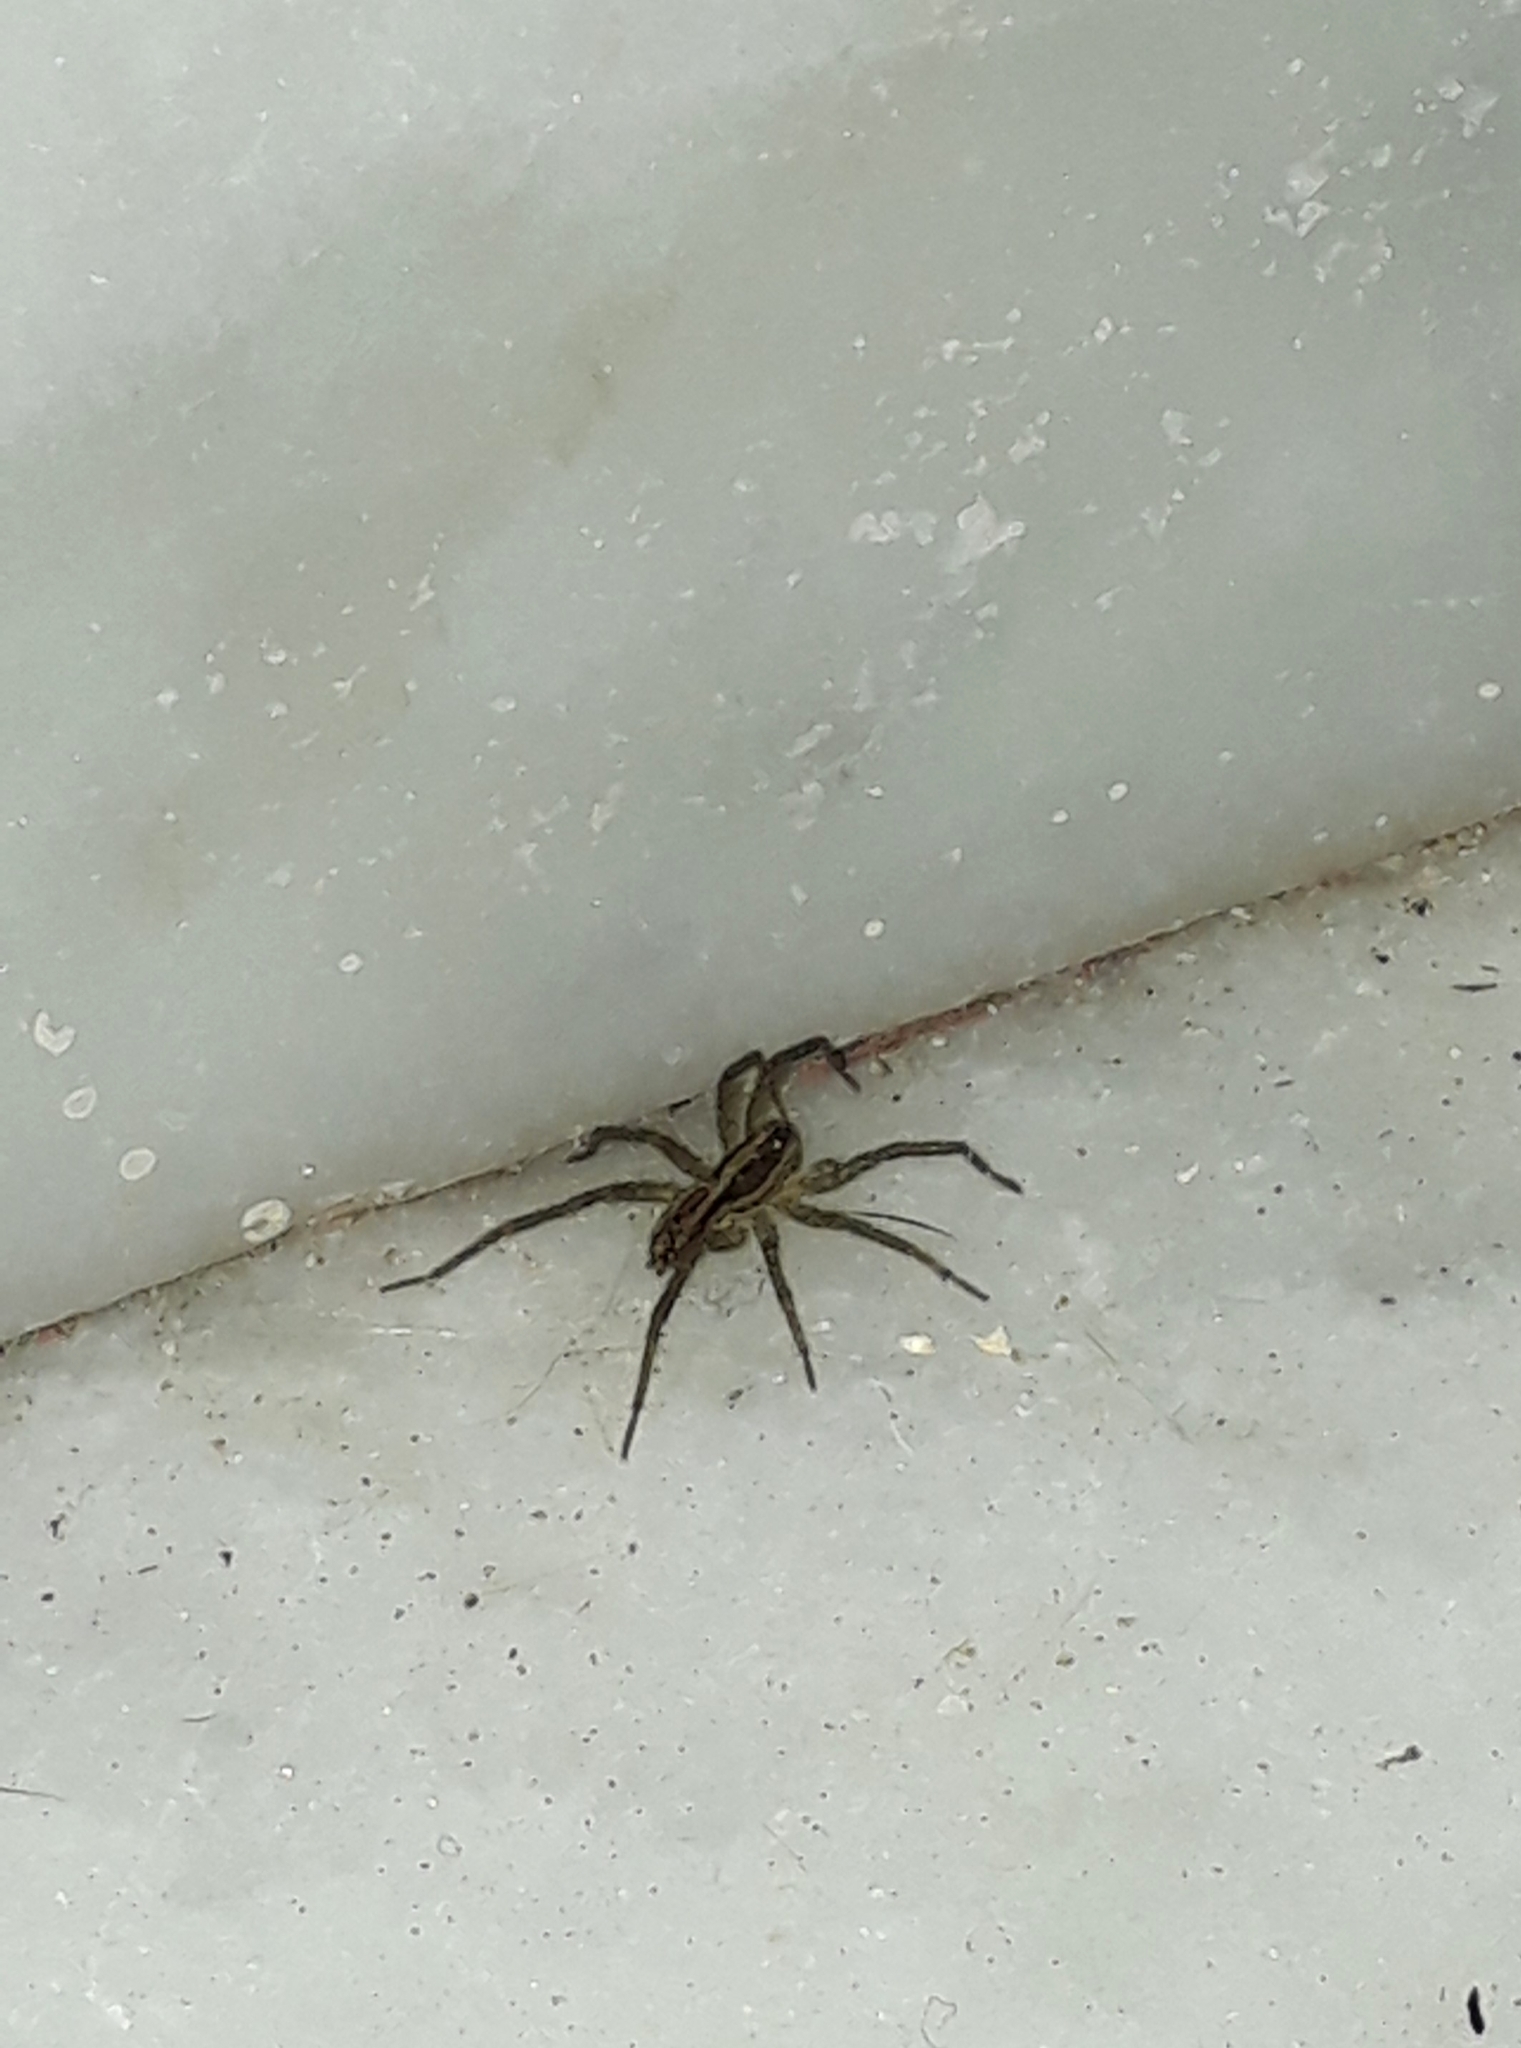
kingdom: Animalia
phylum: Arthropoda
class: Arachnida
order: Araneae
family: Lycosidae
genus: Alopecosa
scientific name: Alopecosa moesta
